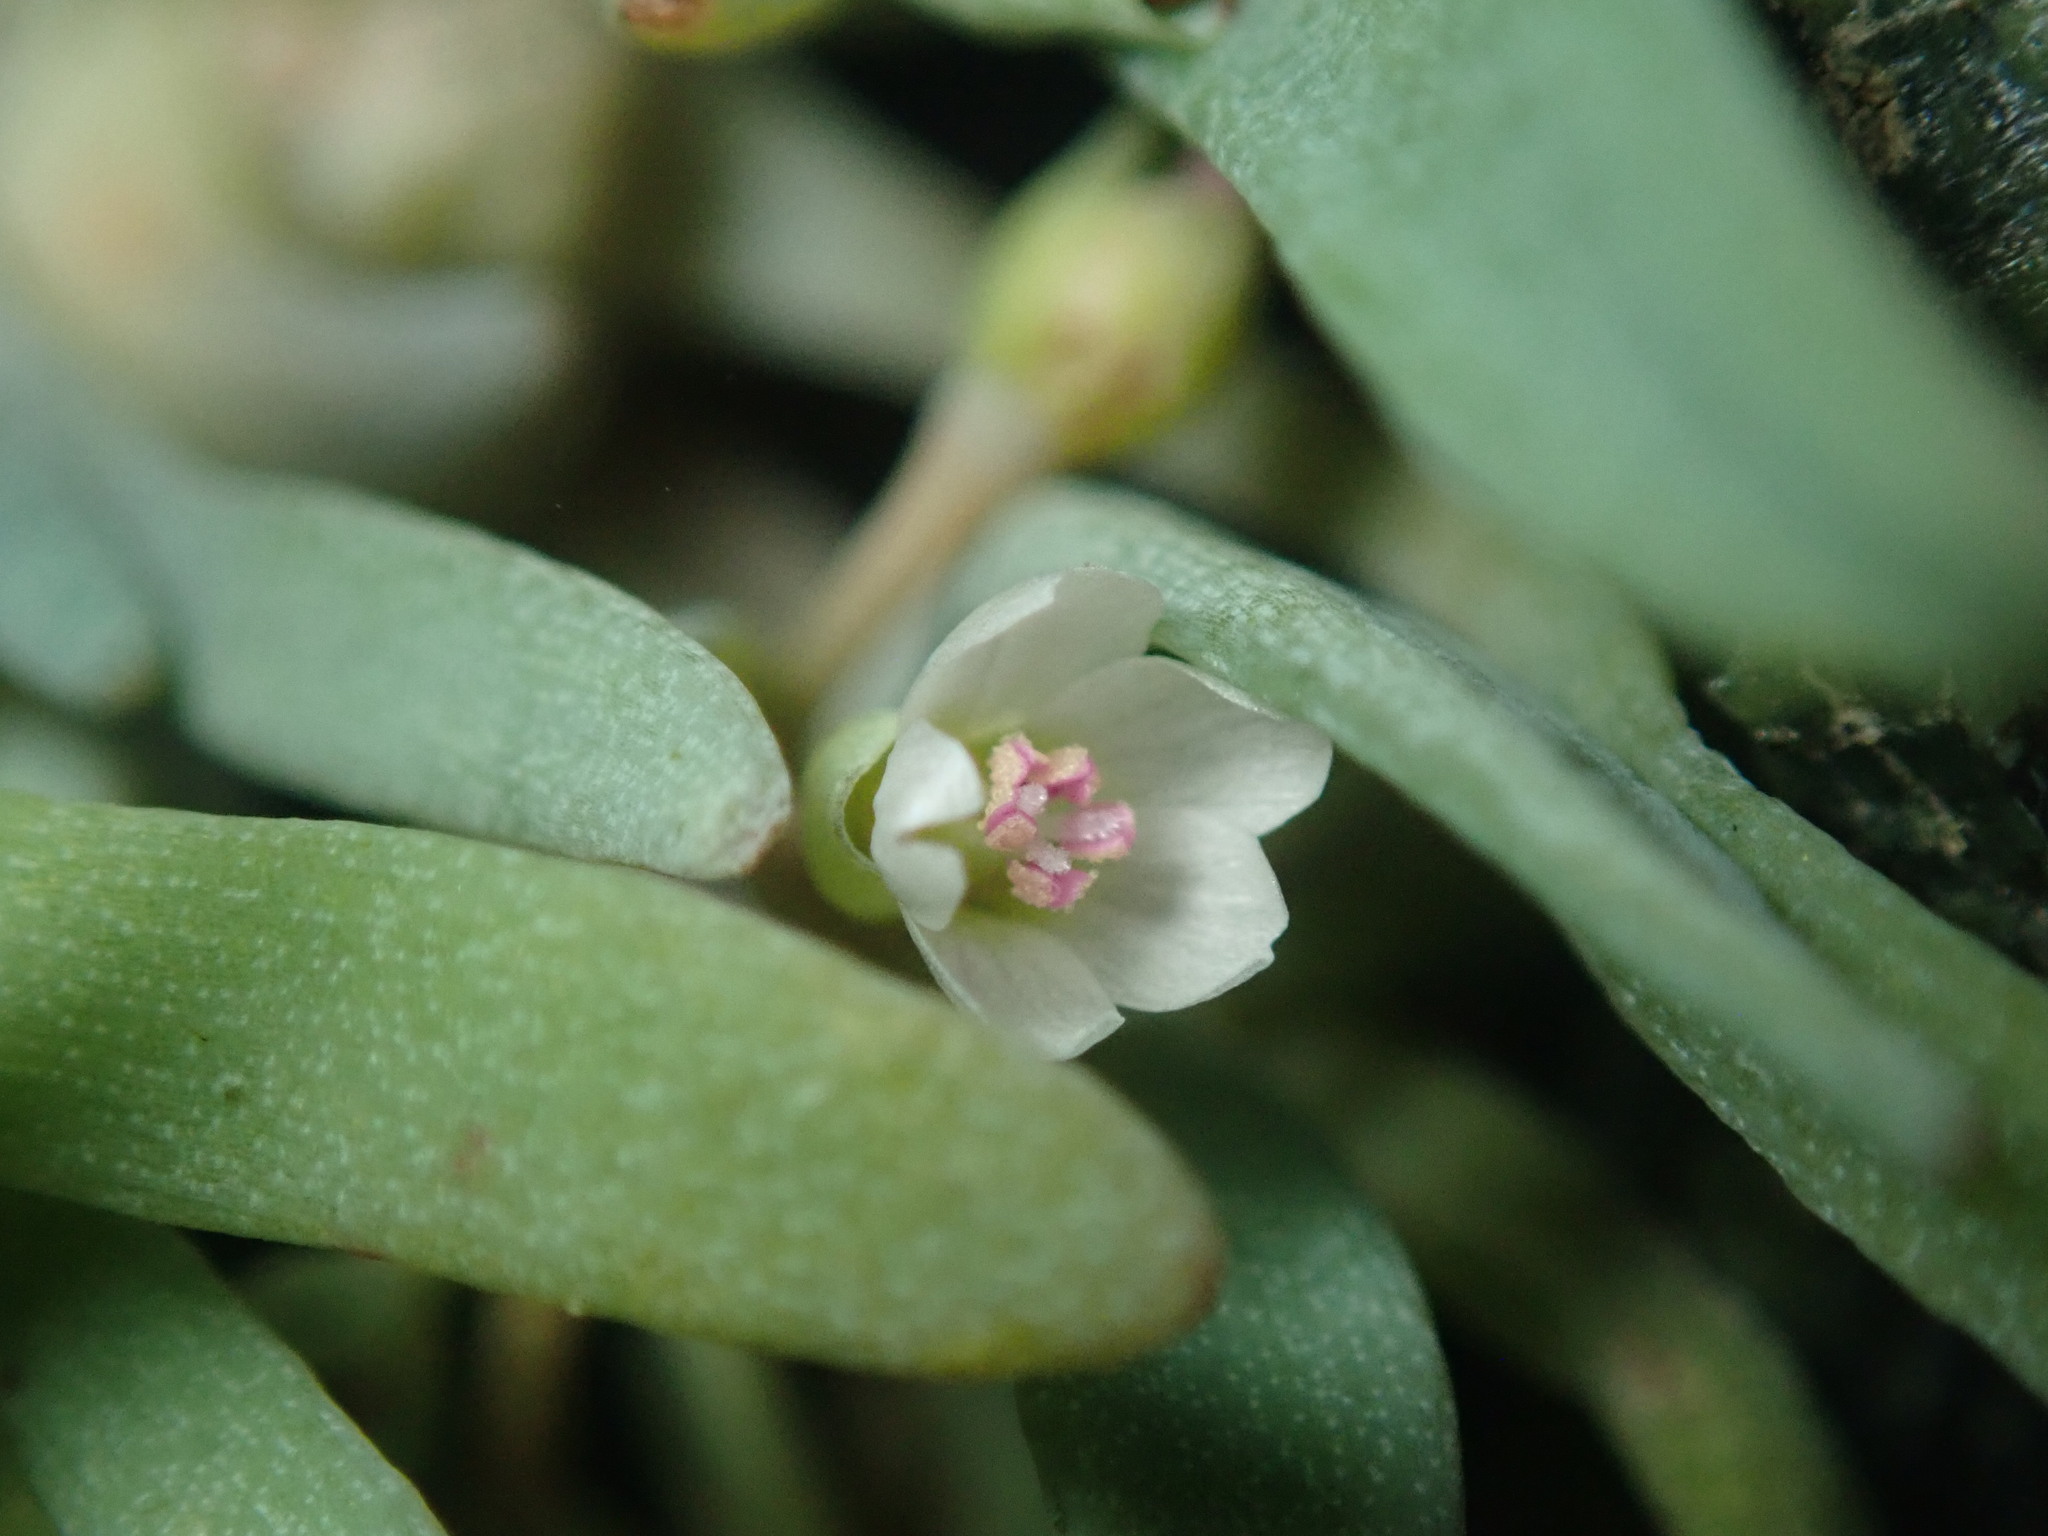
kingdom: Plantae
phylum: Tracheophyta
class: Magnoliopsida
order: Caryophyllales
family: Montiaceae
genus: Claytonia
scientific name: Claytonia exigua
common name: Pale spring beauty
